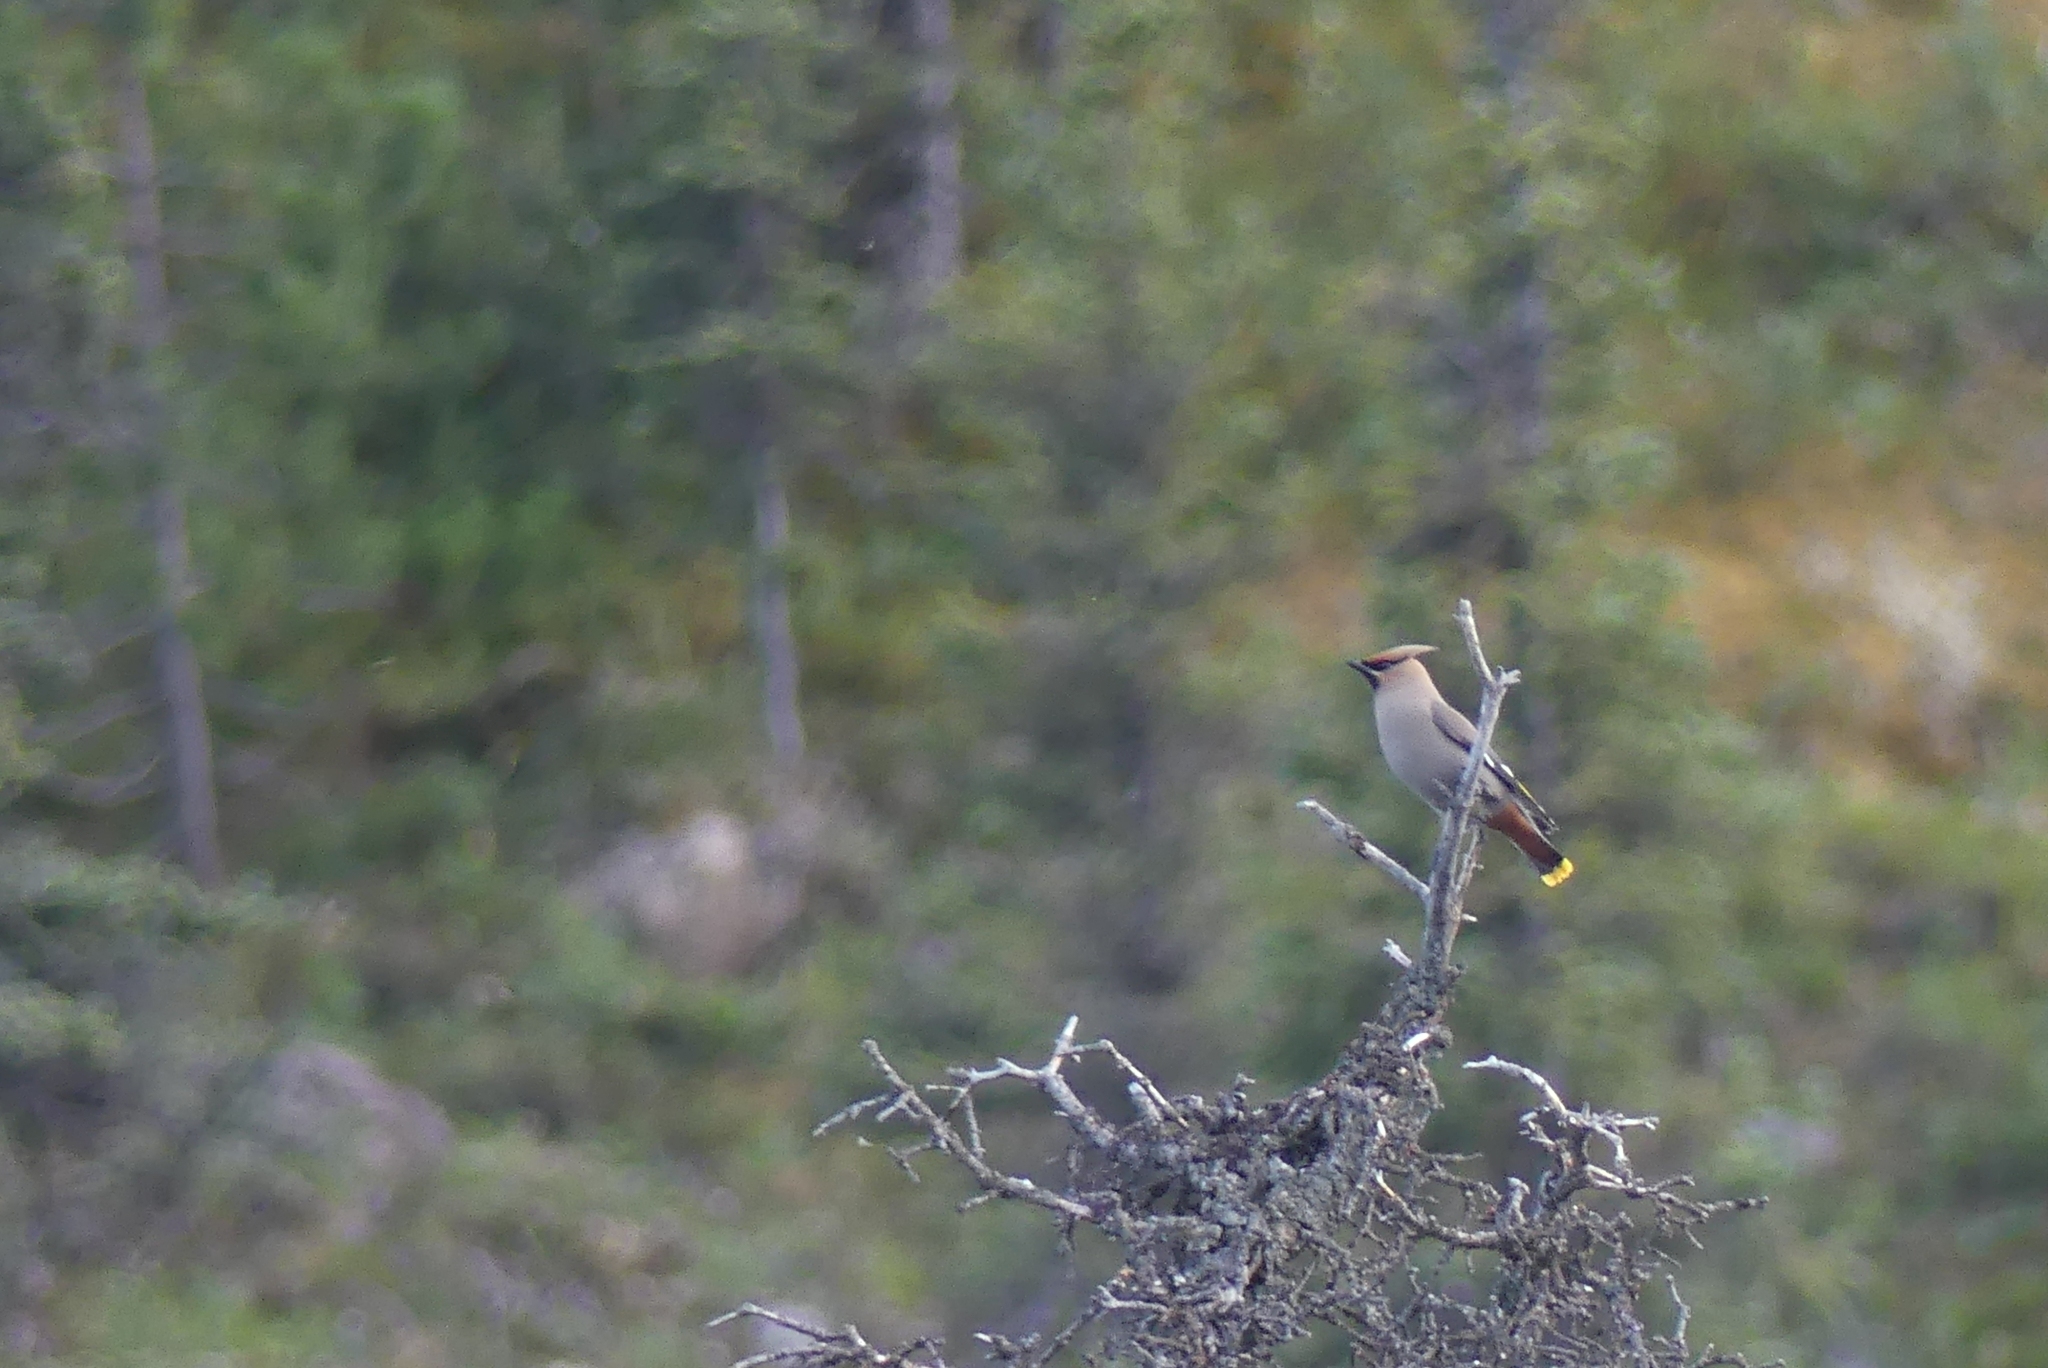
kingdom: Animalia
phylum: Chordata
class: Aves
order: Passeriformes
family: Bombycillidae
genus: Bombycilla
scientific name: Bombycilla garrulus
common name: Bohemian waxwing
